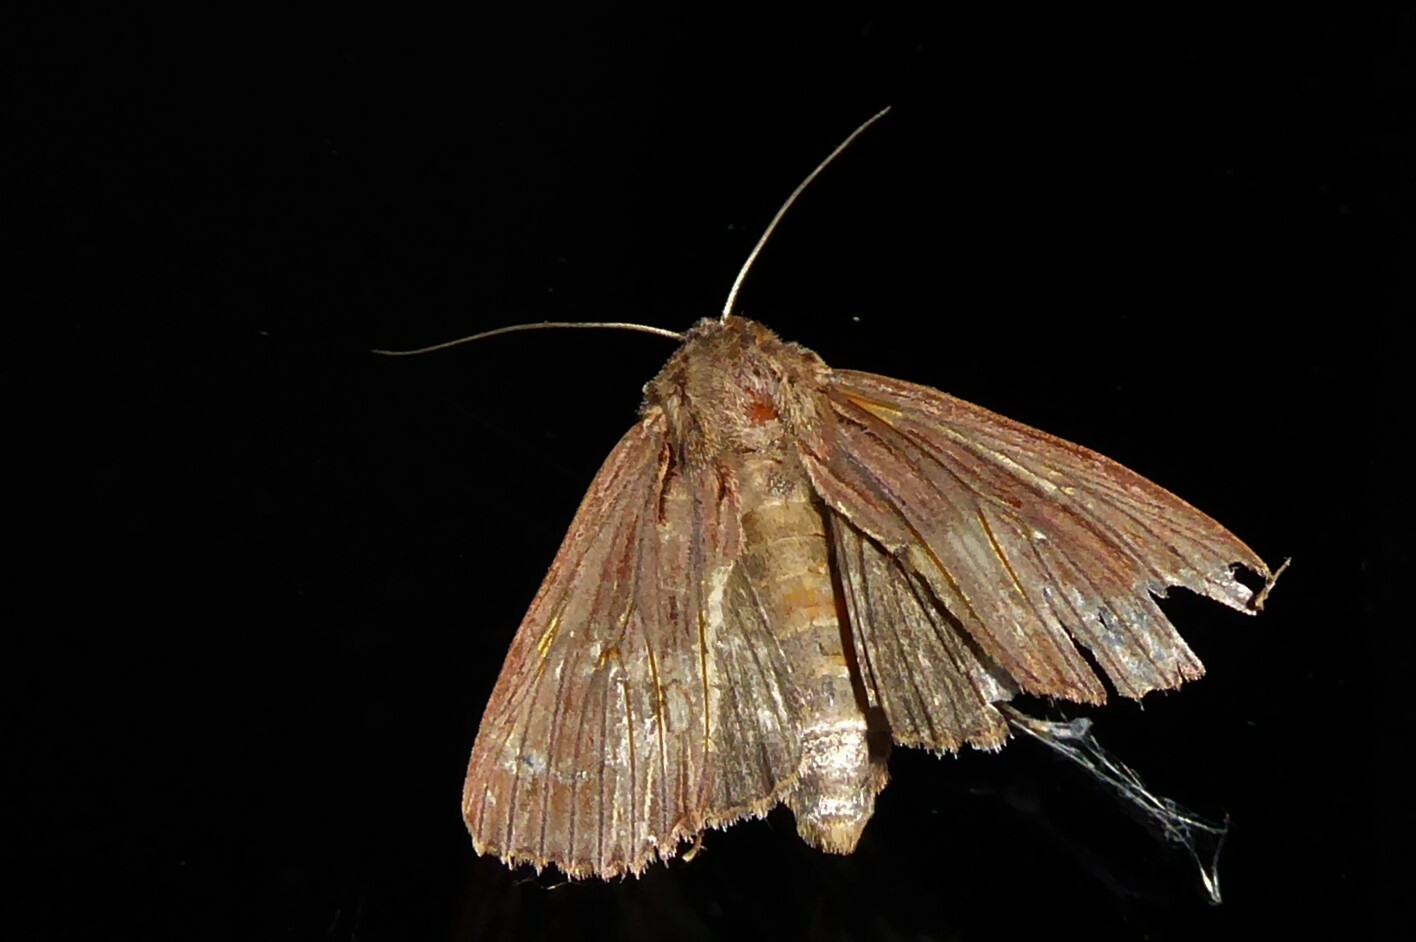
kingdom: Animalia
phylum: Arthropoda
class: Insecta
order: Lepidoptera
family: Noctuidae
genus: Ichneutica
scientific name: Ichneutica
